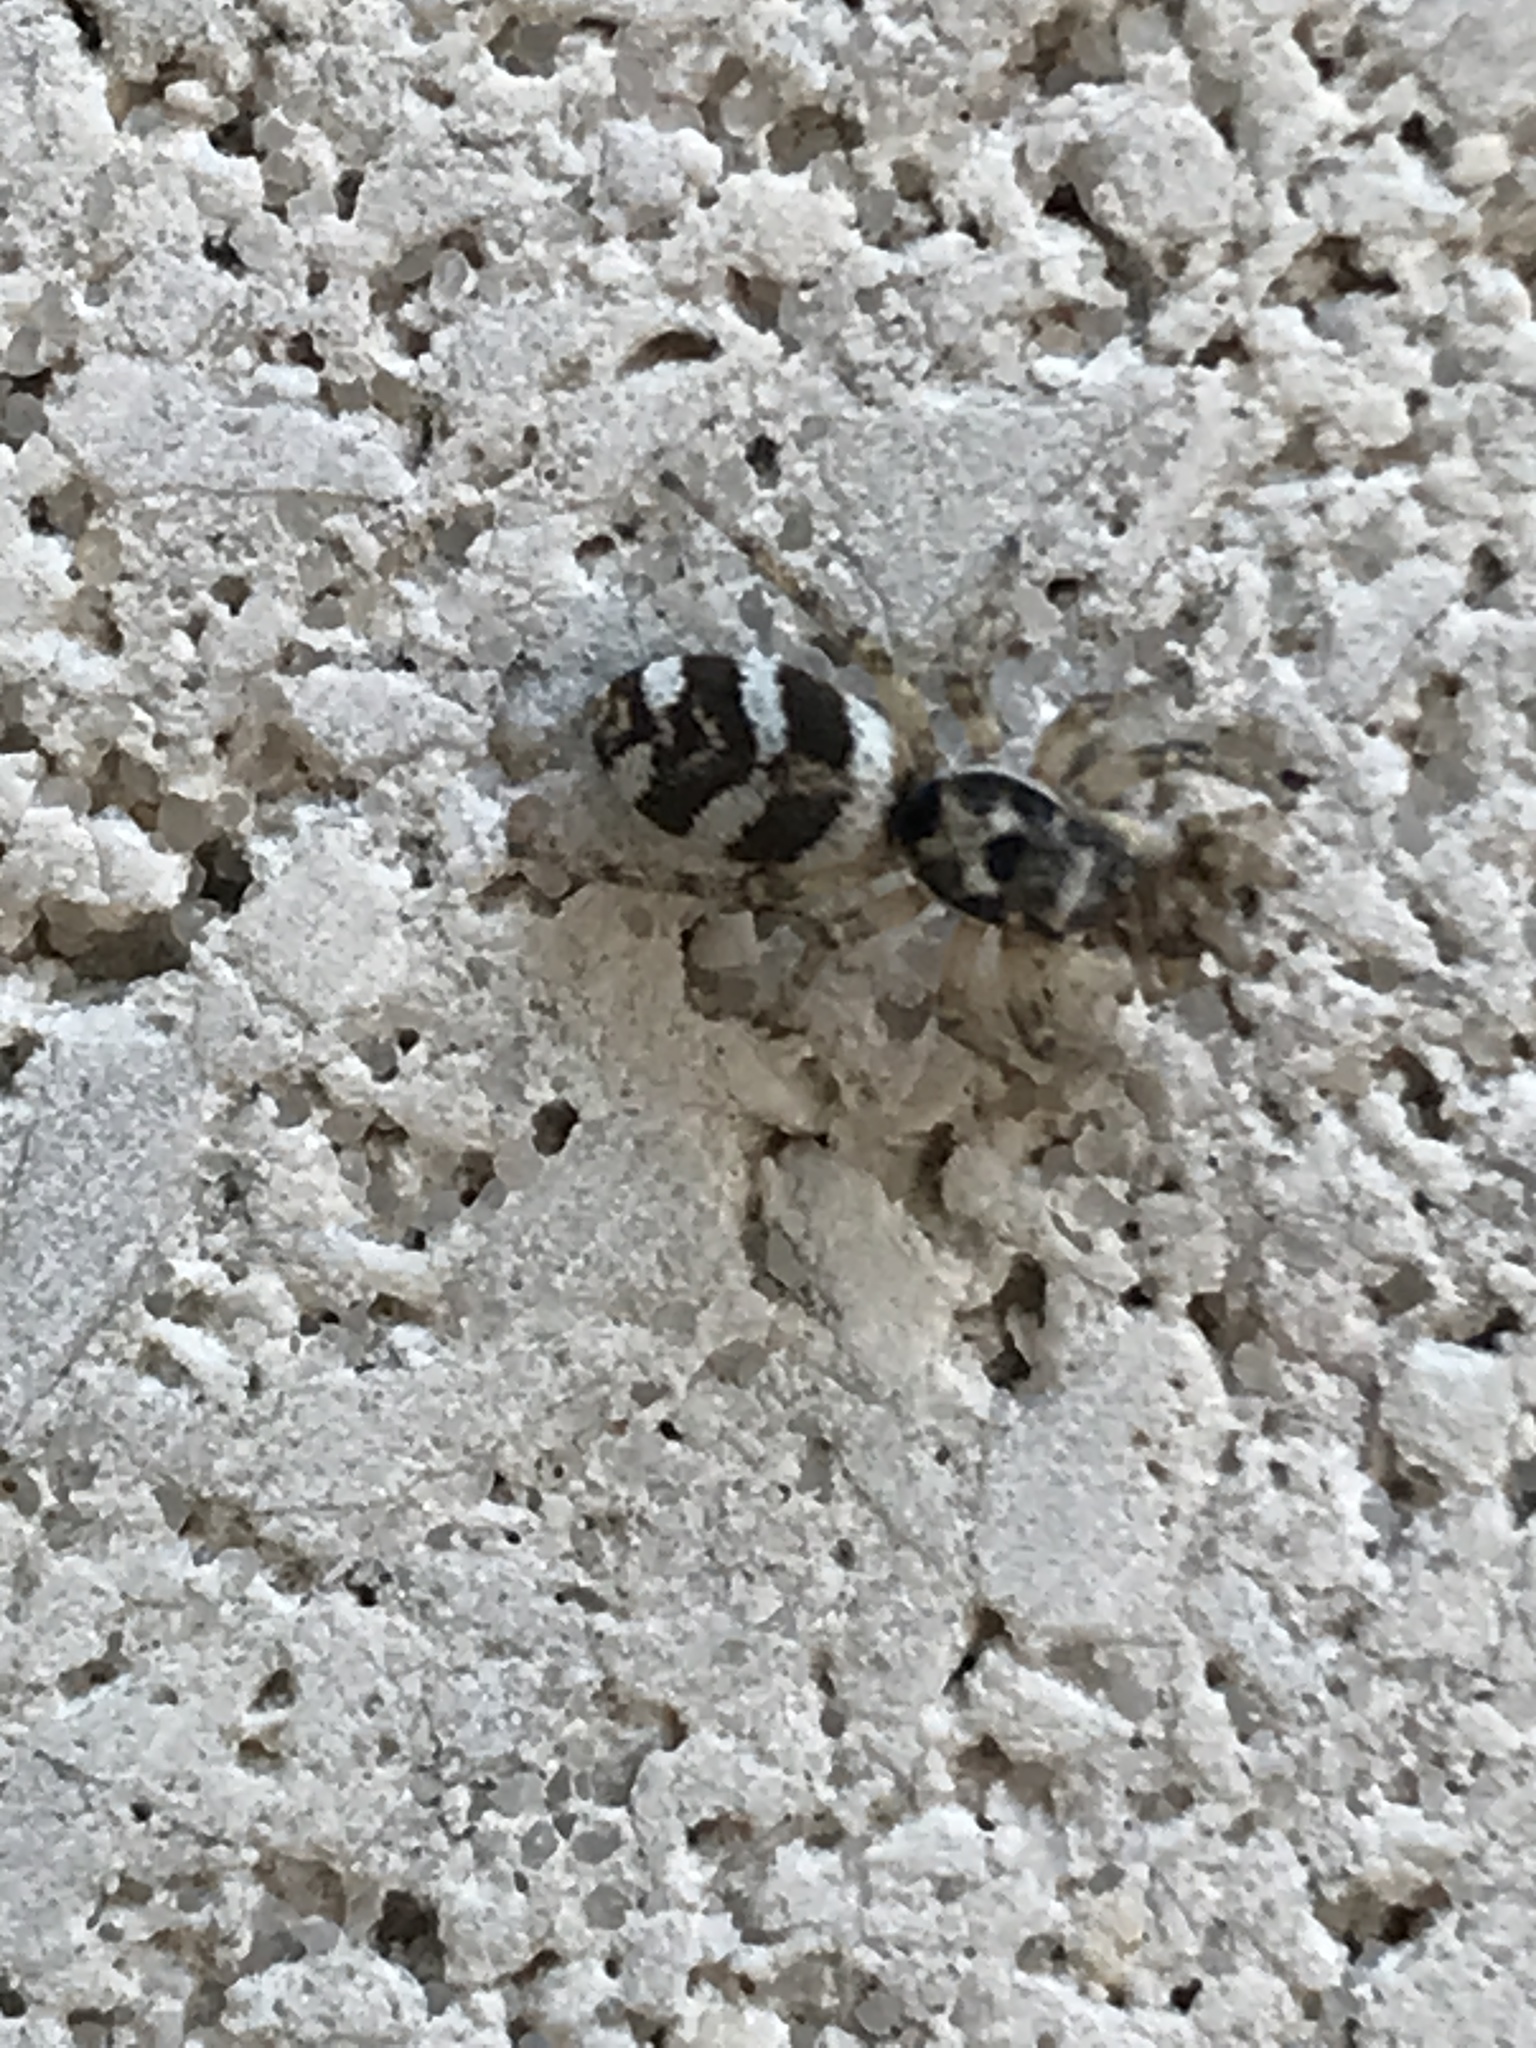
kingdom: Animalia
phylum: Arthropoda
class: Arachnida
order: Araneae
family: Salticidae
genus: Salticus
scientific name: Salticus scenicus
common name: Zebra jumper
